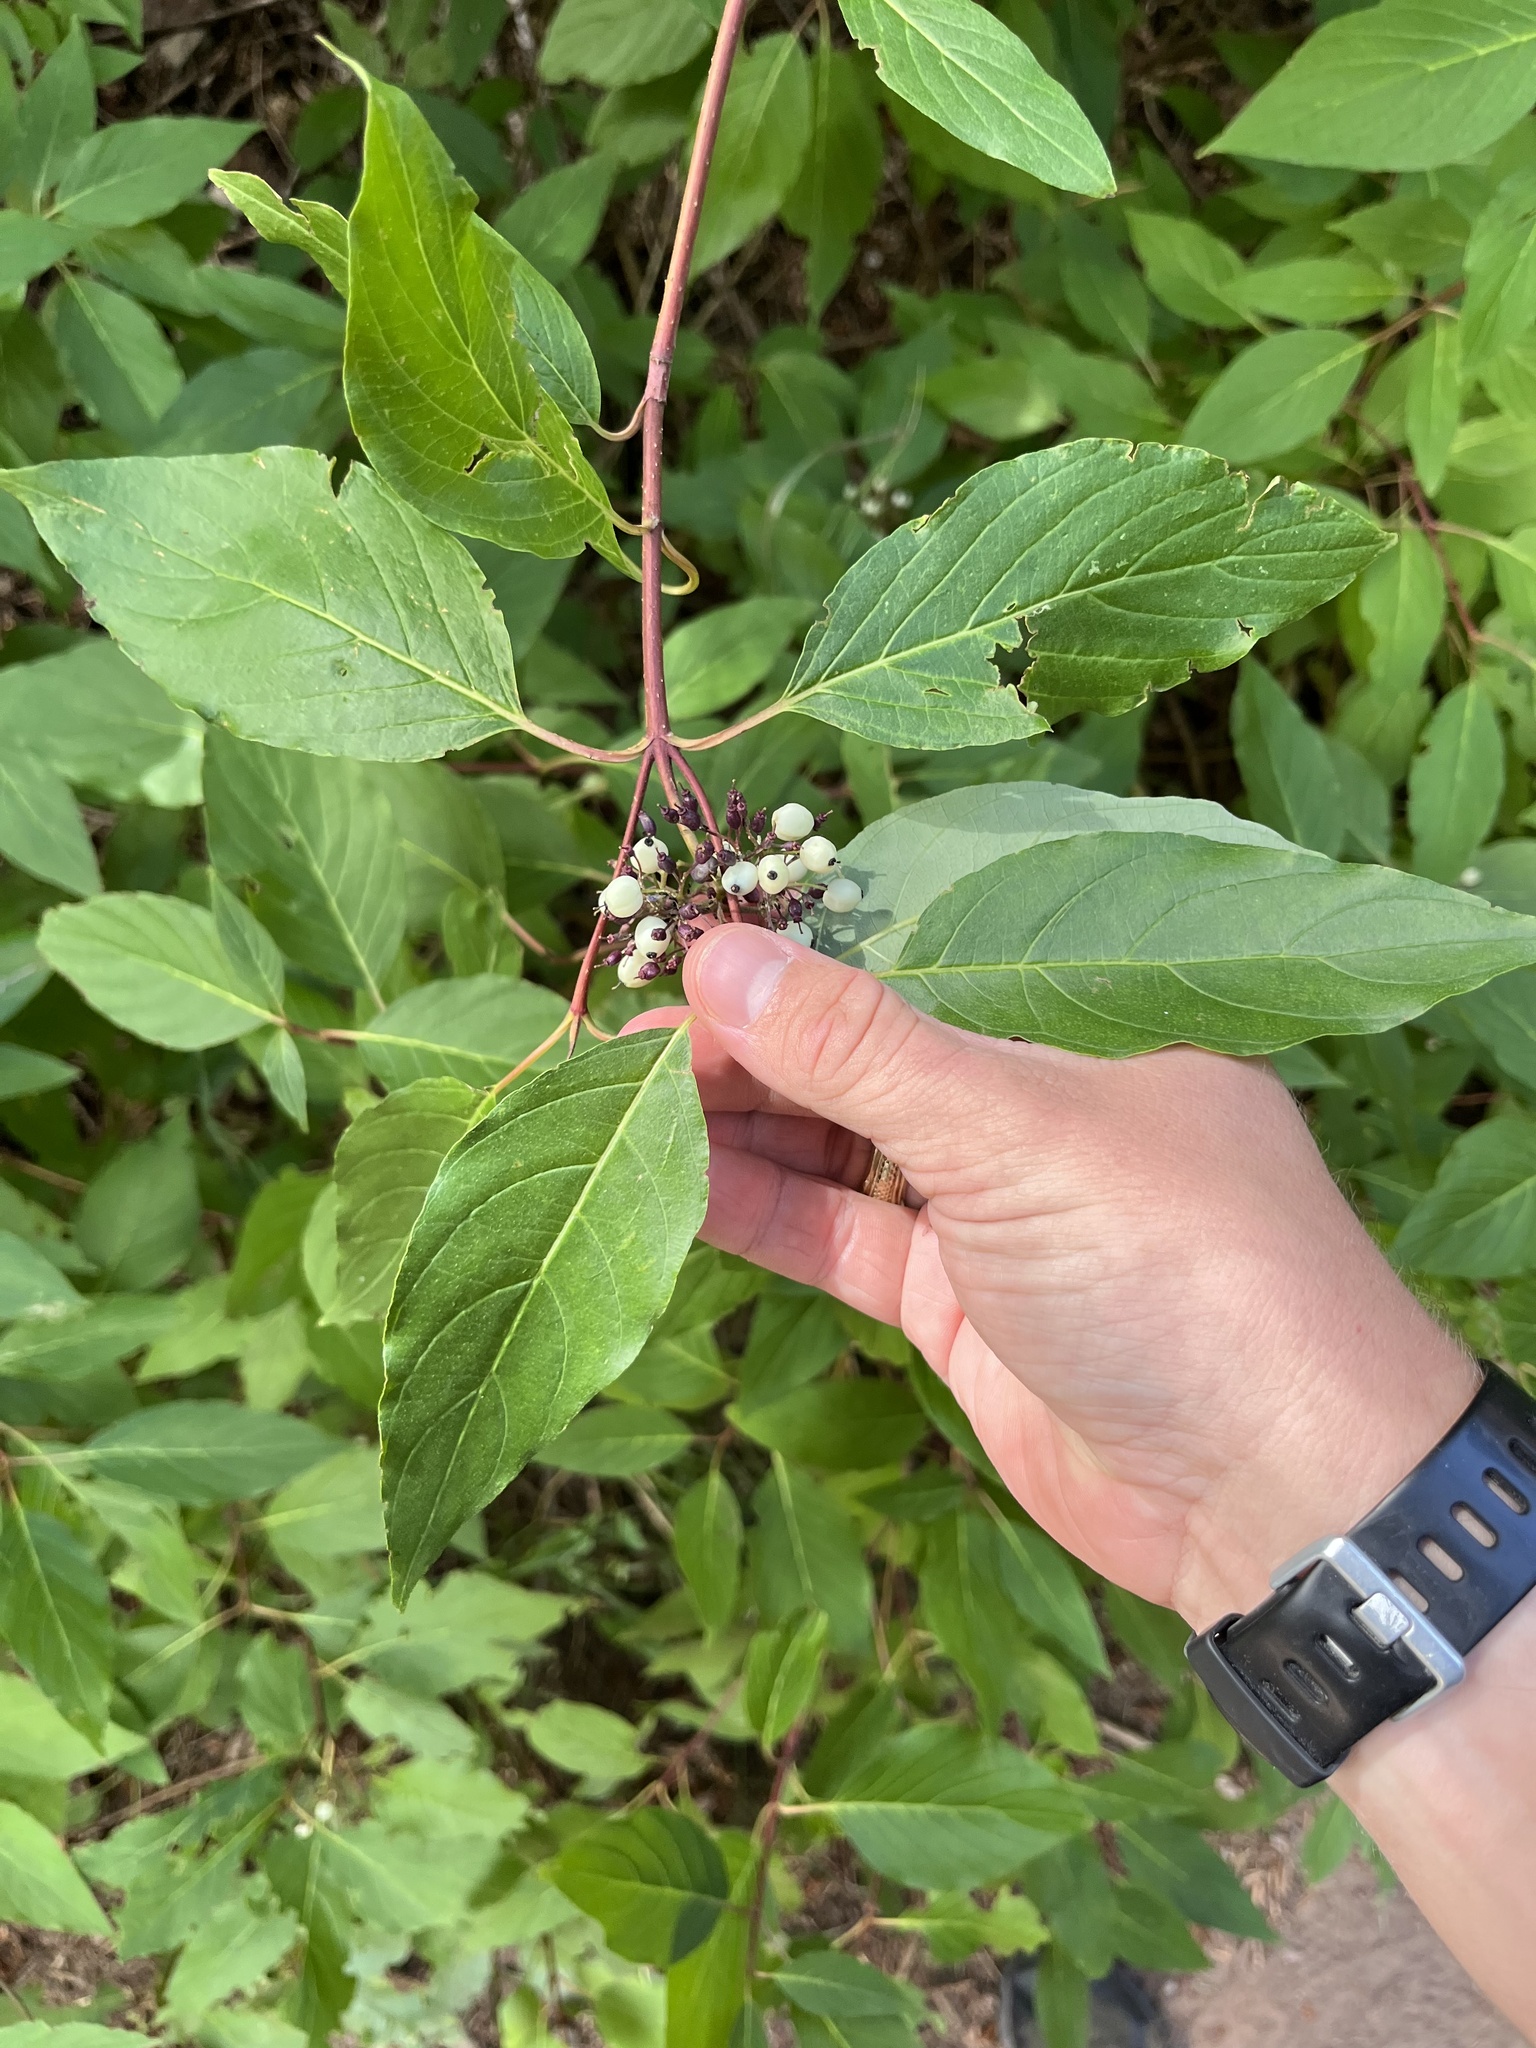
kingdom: Plantae
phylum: Tracheophyta
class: Magnoliopsida
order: Cornales
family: Cornaceae
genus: Cornus
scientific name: Cornus sericea
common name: Red-osier dogwood
